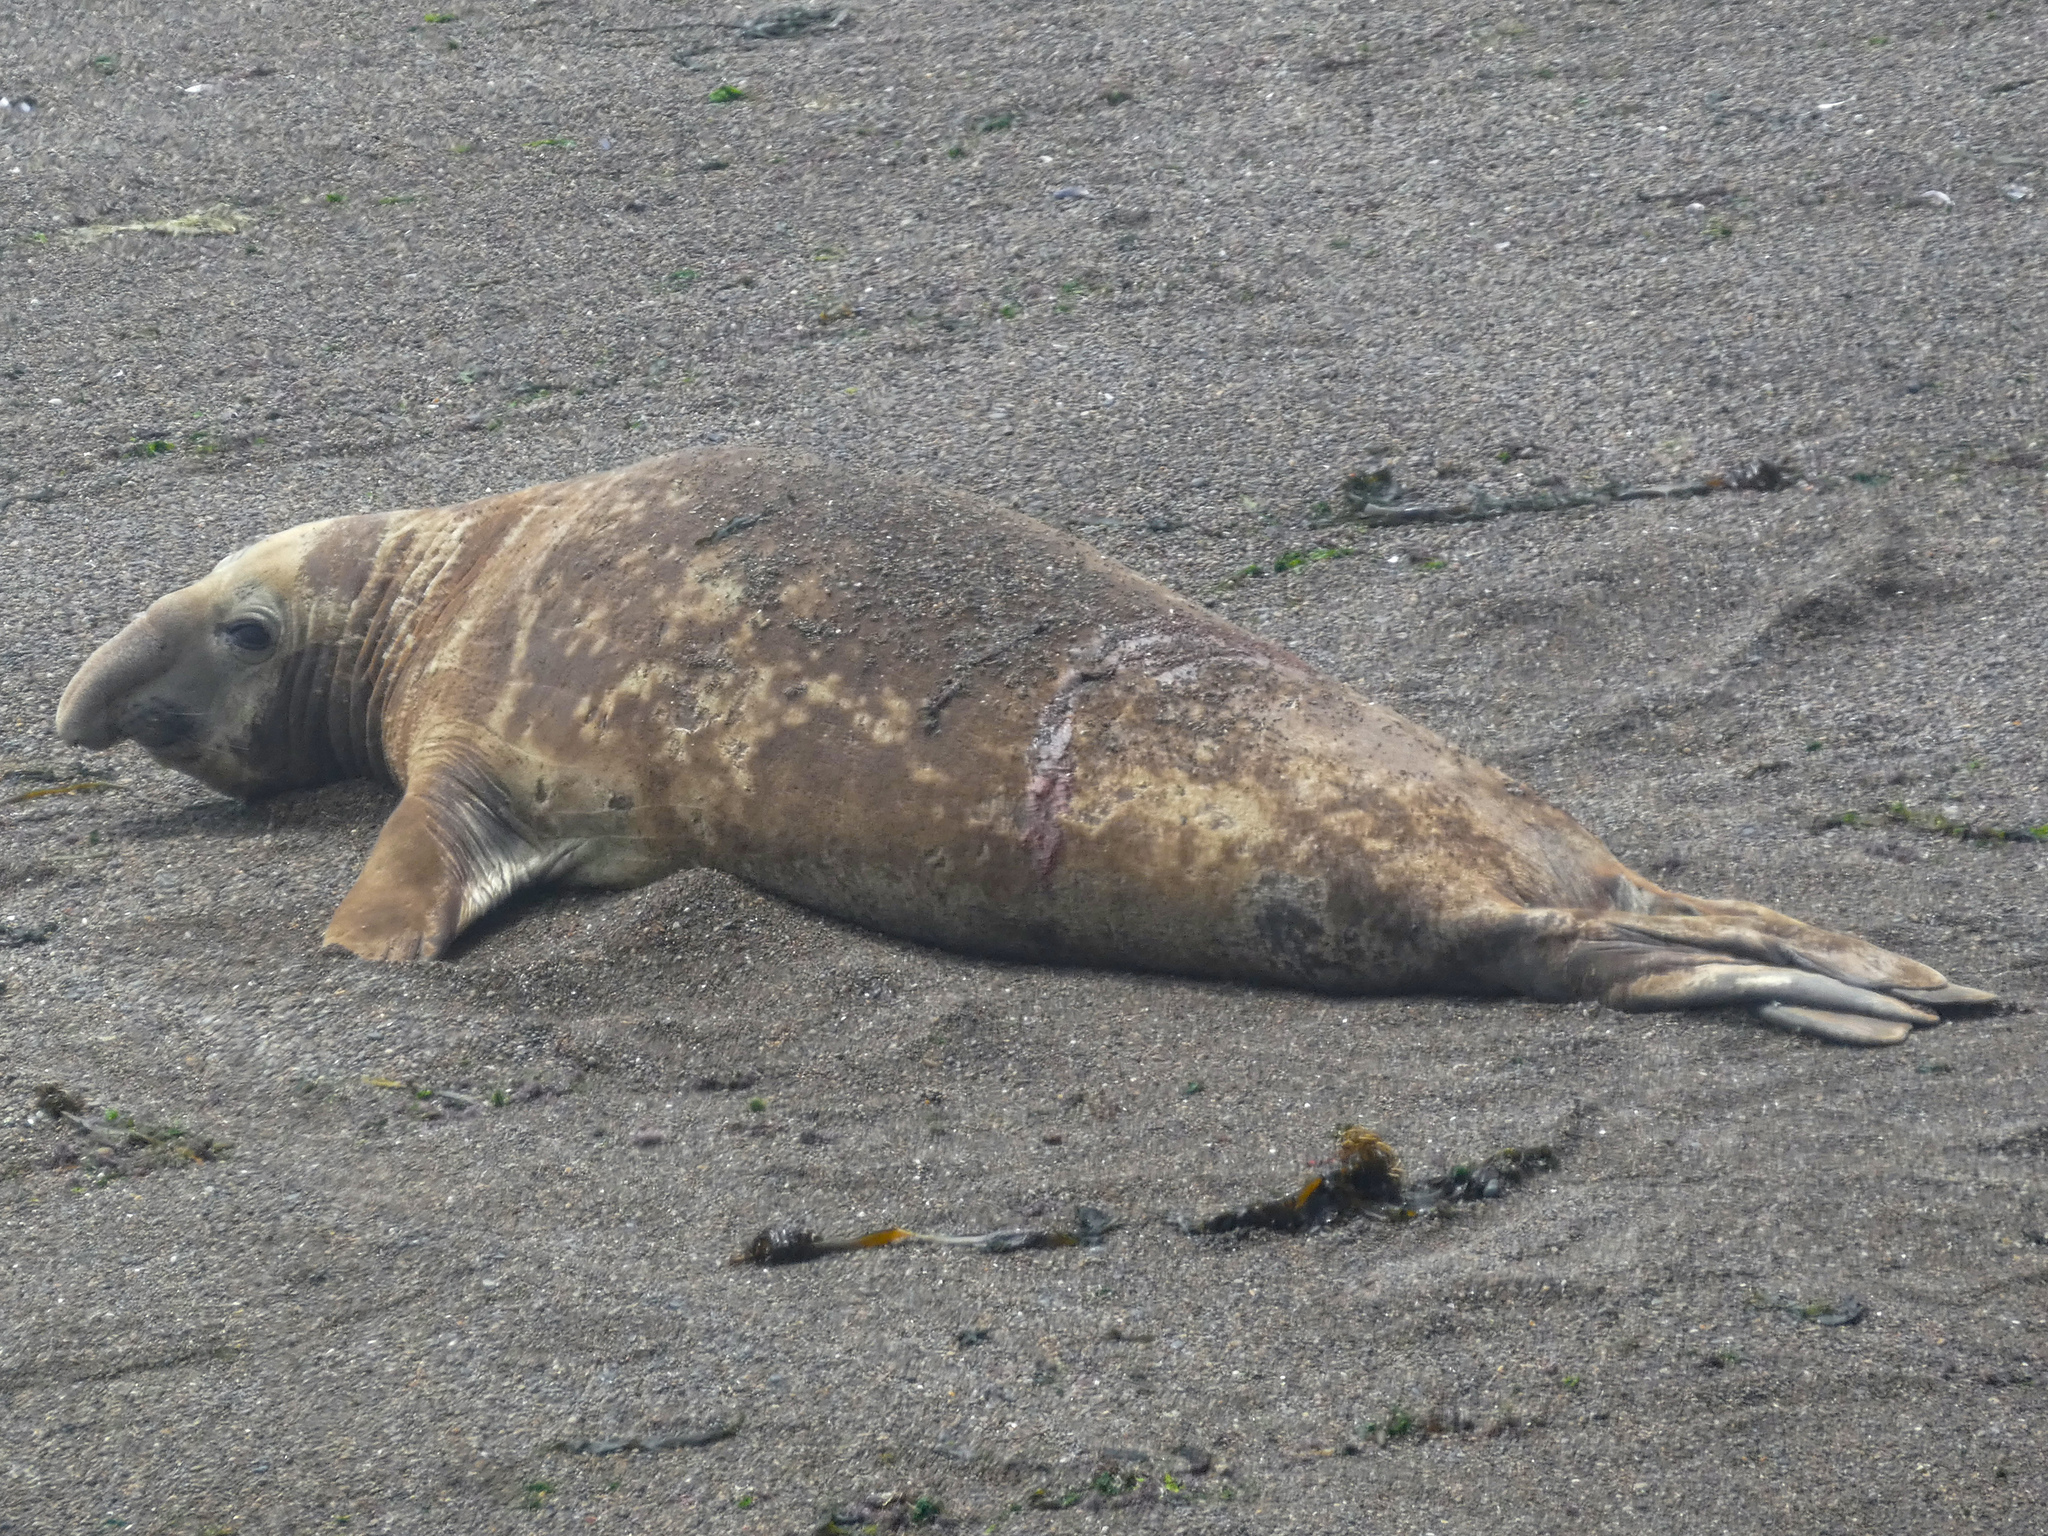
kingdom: Animalia
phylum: Chordata
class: Mammalia
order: Carnivora
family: Phocidae
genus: Mirounga
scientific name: Mirounga leonina
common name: Southern elephant seal
